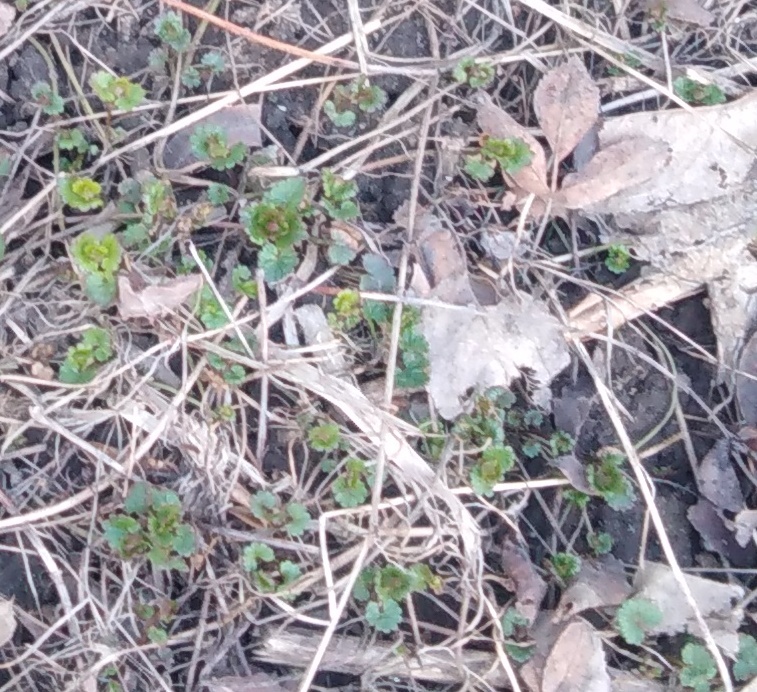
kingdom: Plantae
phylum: Tracheophyta
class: Magnoliopsida
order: Lamiales
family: Lamiaceae
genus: Glechoma
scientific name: Glechoma hederacea
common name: Ground ivy
